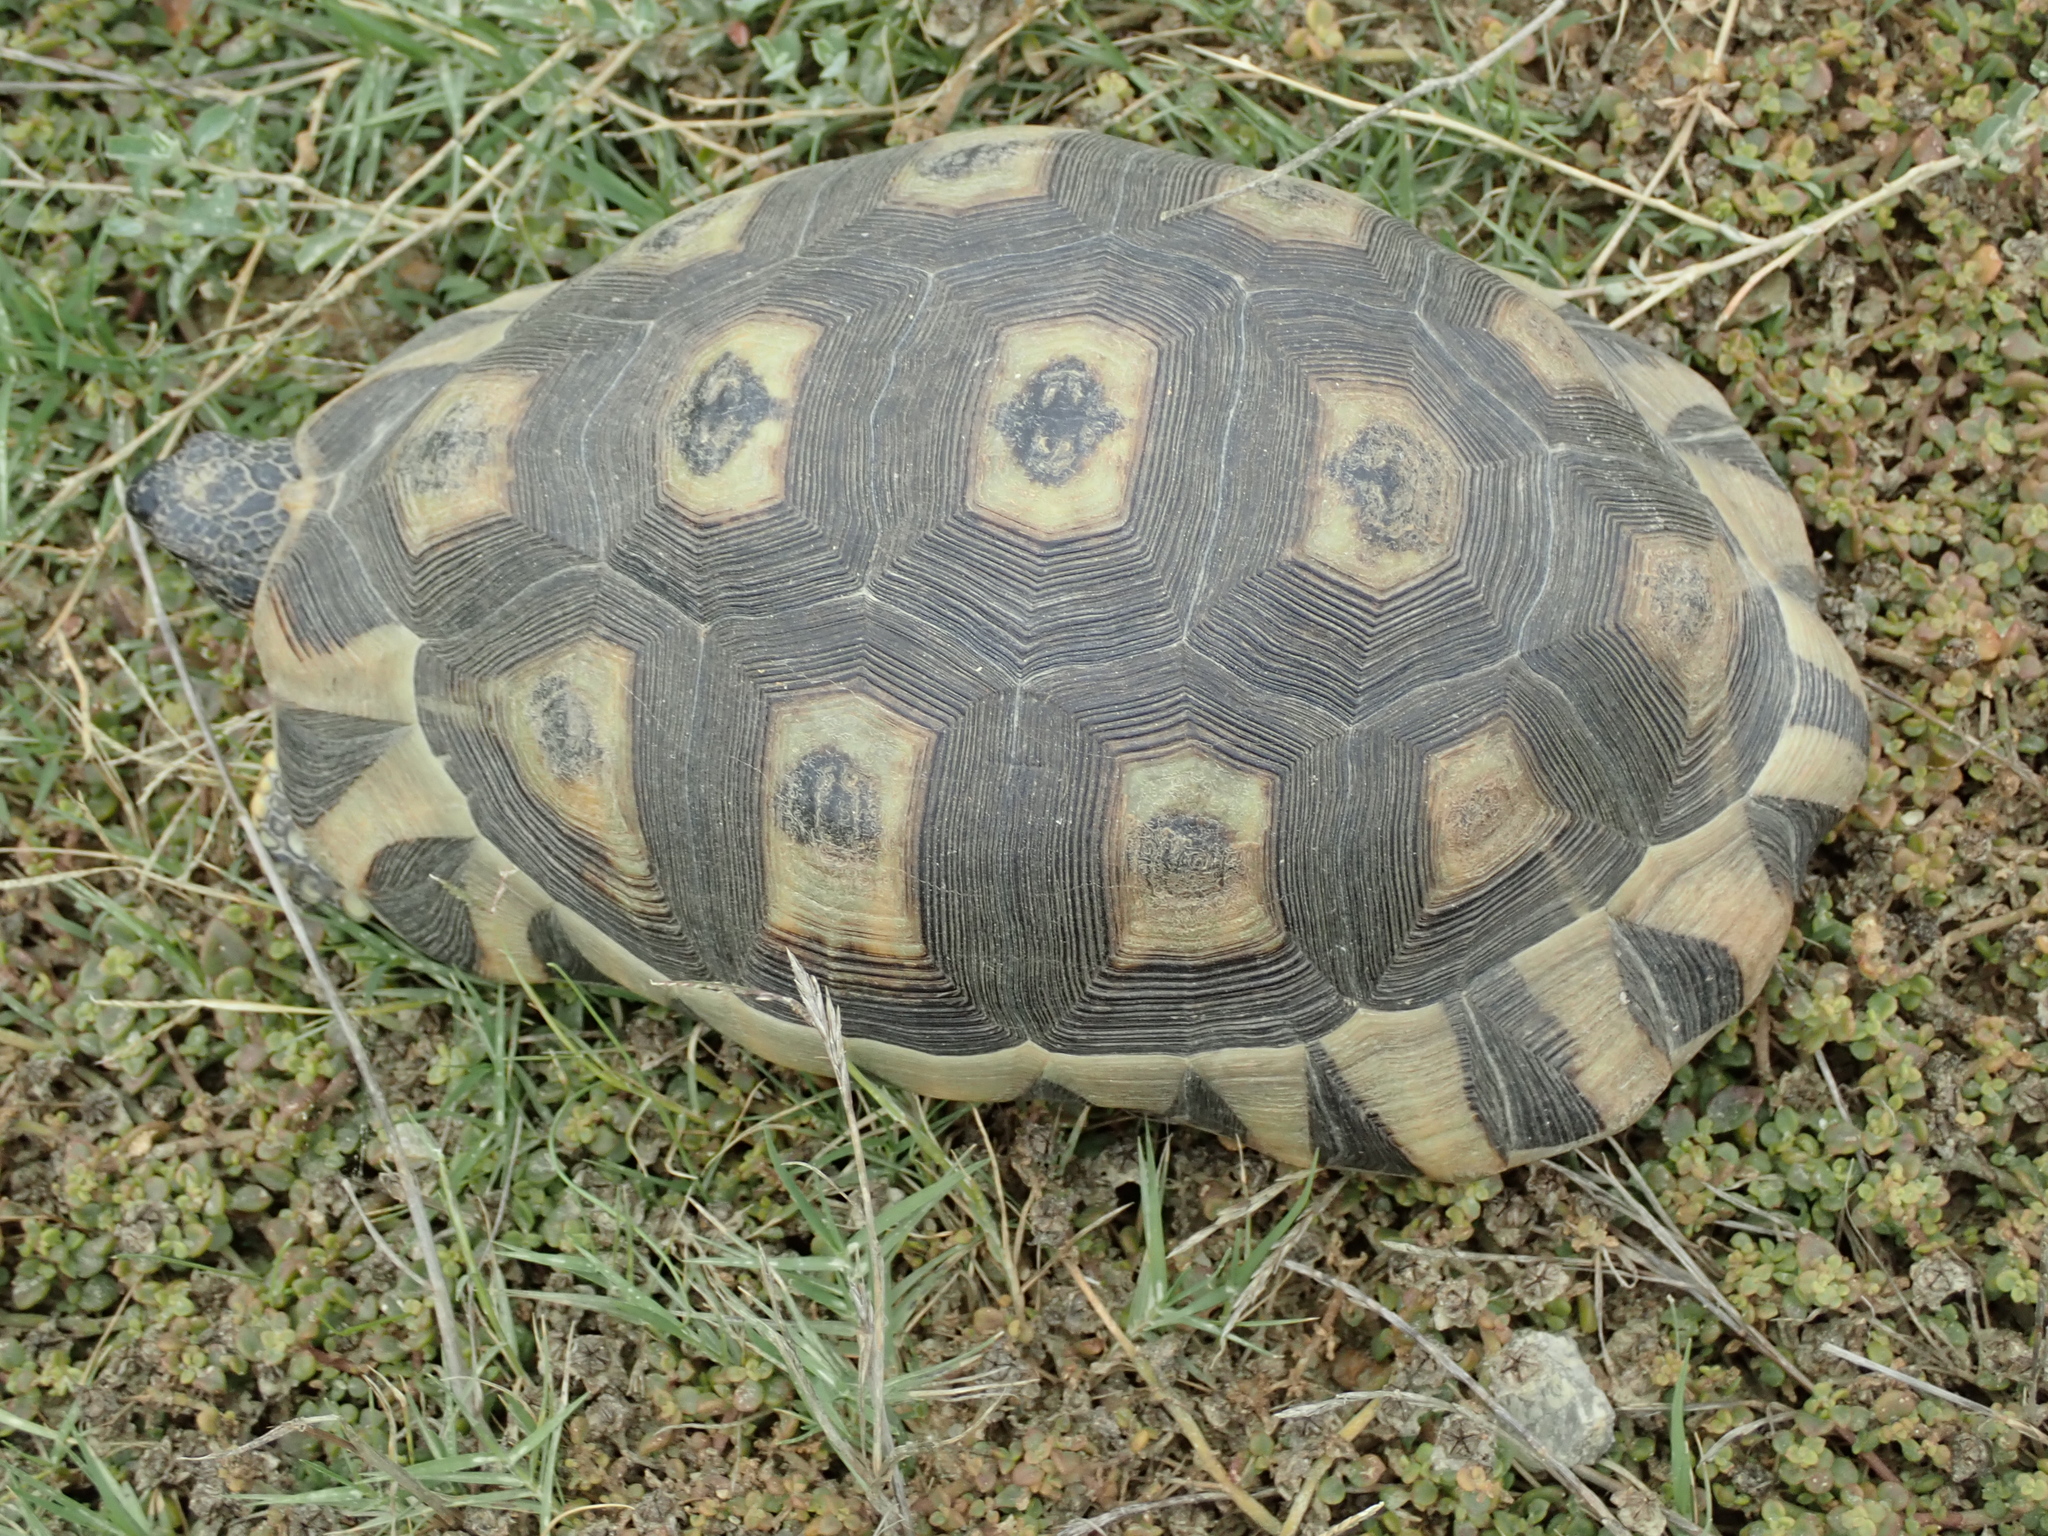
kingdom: Animalia
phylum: Chordata
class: Testudines
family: Testudinidae
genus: Chersina
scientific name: Chersina angulata
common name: South african bowsprit tortoise
